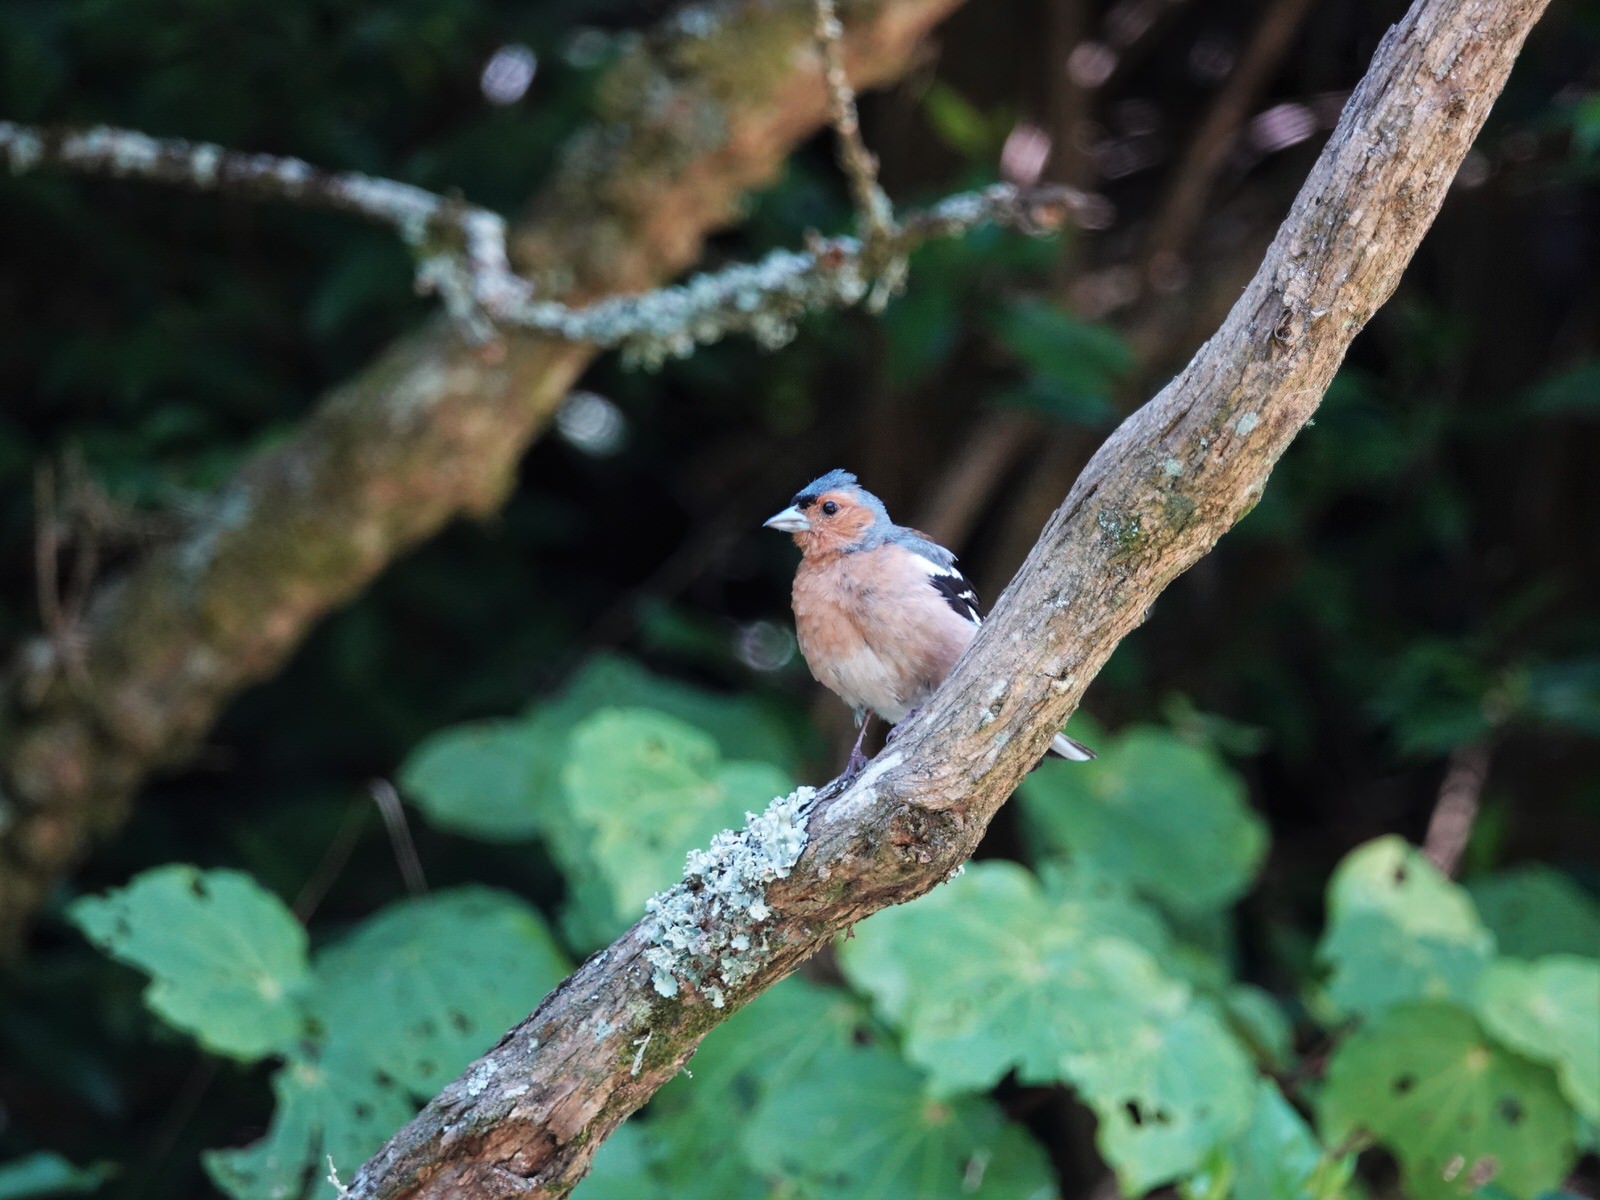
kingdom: Animalia
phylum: Chordata
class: Aves
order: Passeriformes
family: Fringillidae
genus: Fringilla
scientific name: Fringilla coelebs
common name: Common chaffinch
